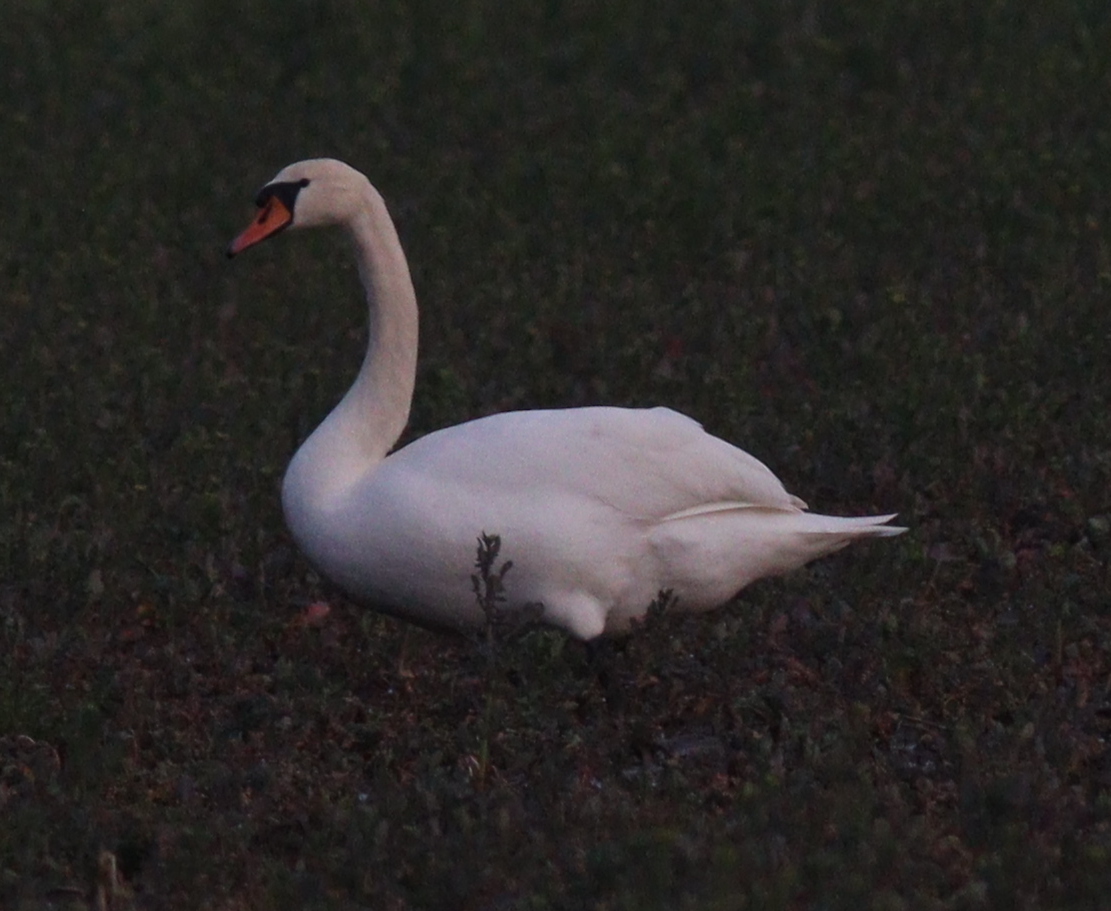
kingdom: Animalia
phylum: Chordata
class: Aves
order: Anseriformes
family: Anatidae
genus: Cygnus
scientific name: Cygnus olor
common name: Mute swan
